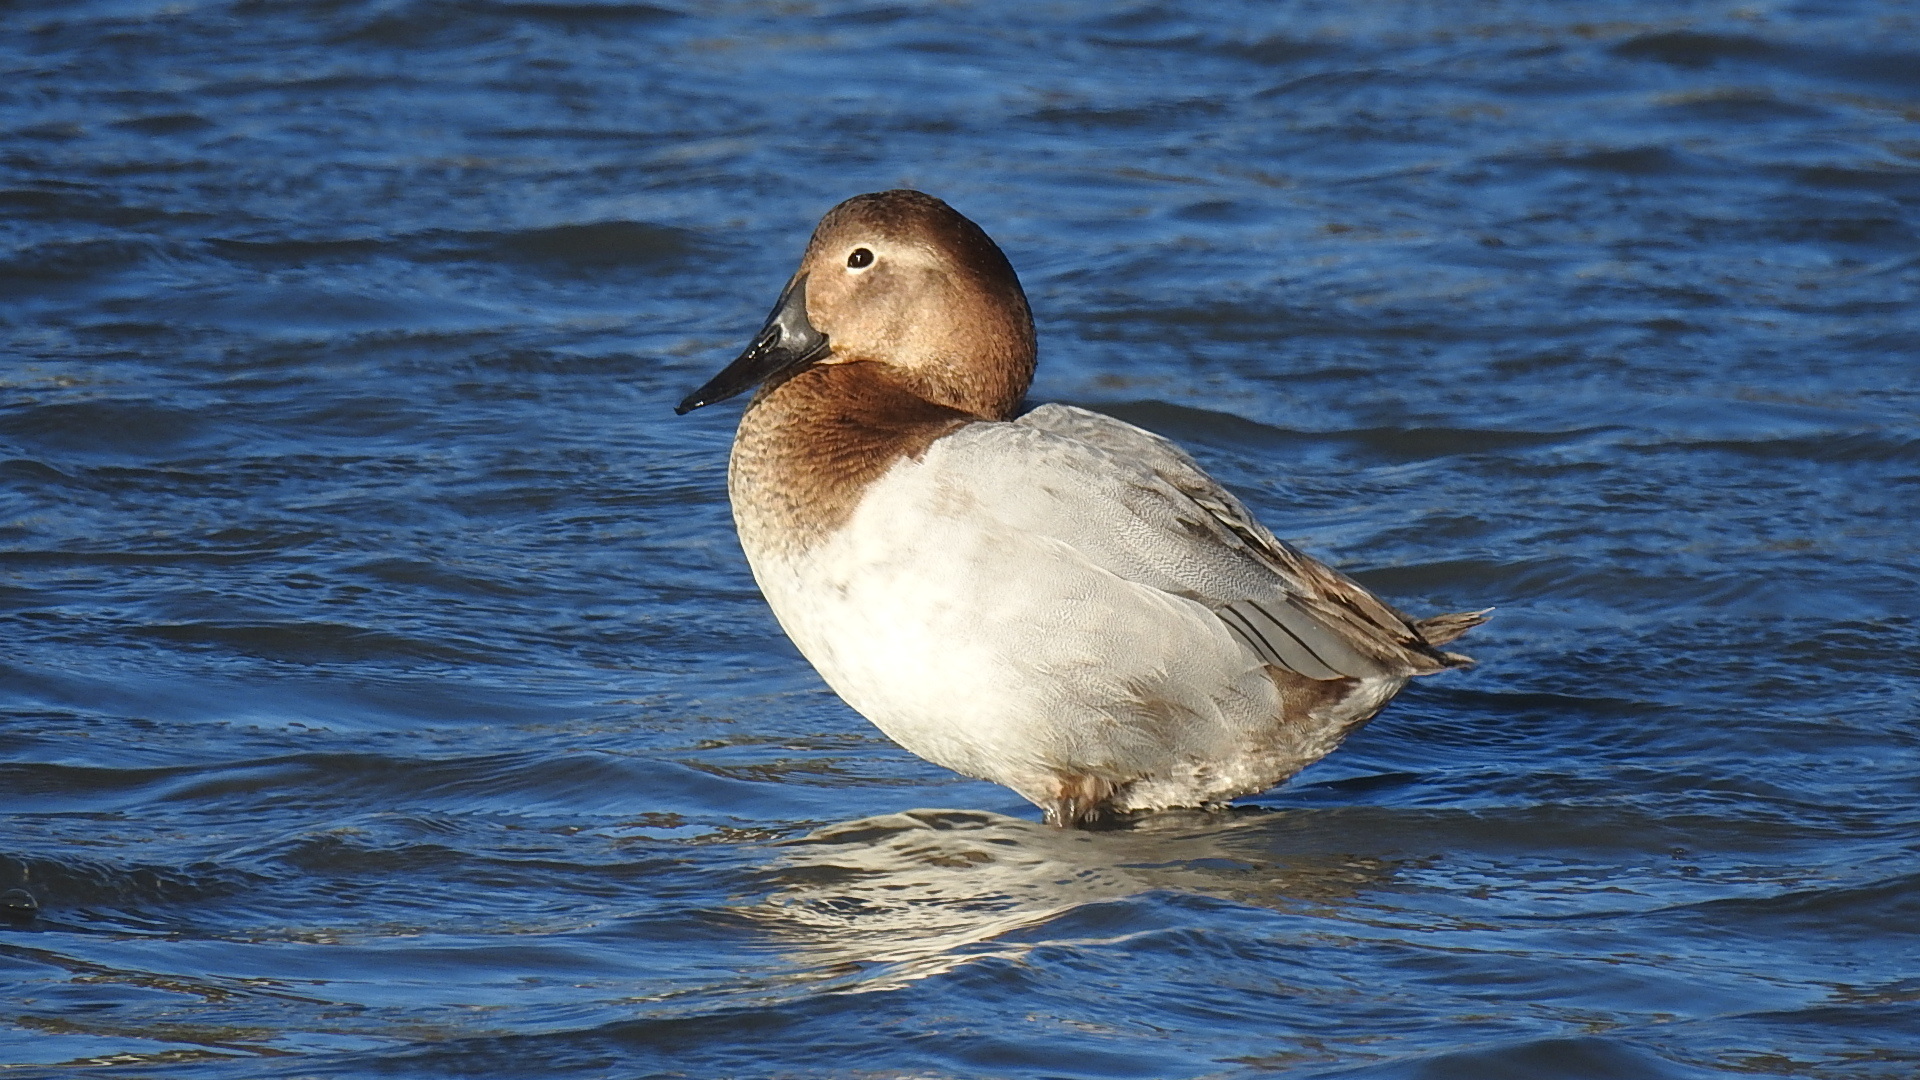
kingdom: Animalia
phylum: Chordata
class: Aves
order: Anseriformes
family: Anatidae
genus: Aythya
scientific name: Aythya valisineria
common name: Canvasback
